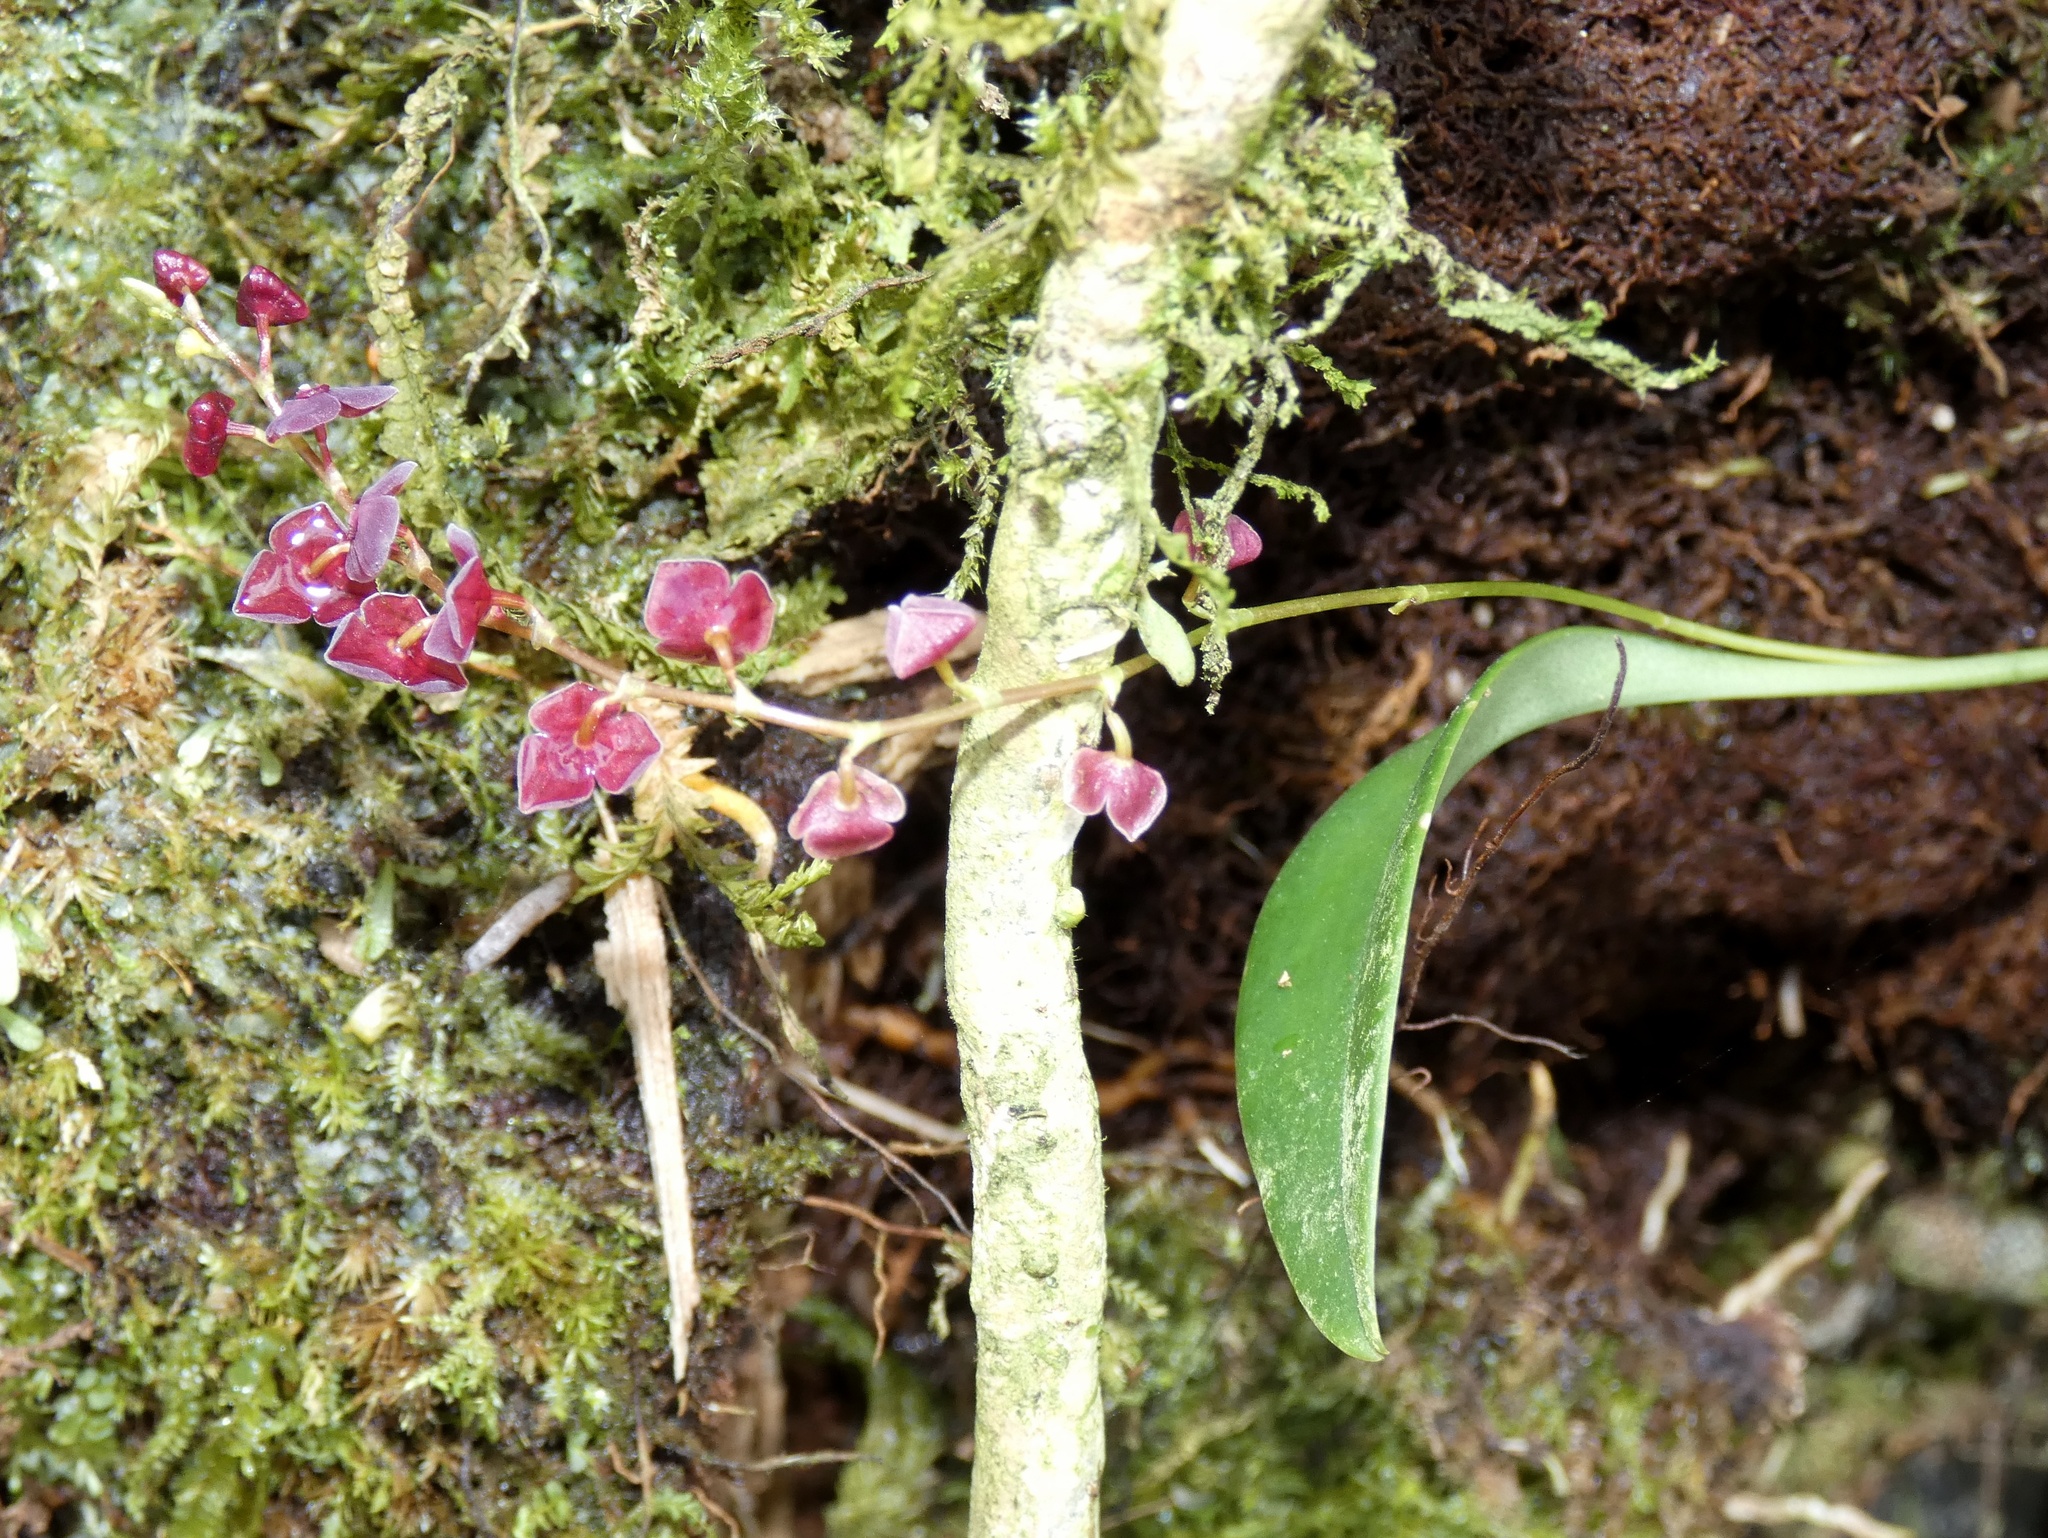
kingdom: Plantae
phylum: Tracheophyta
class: Liliopsida
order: Asparagales
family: Orchidaceae
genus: Stelis
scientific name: Stelis argentata
